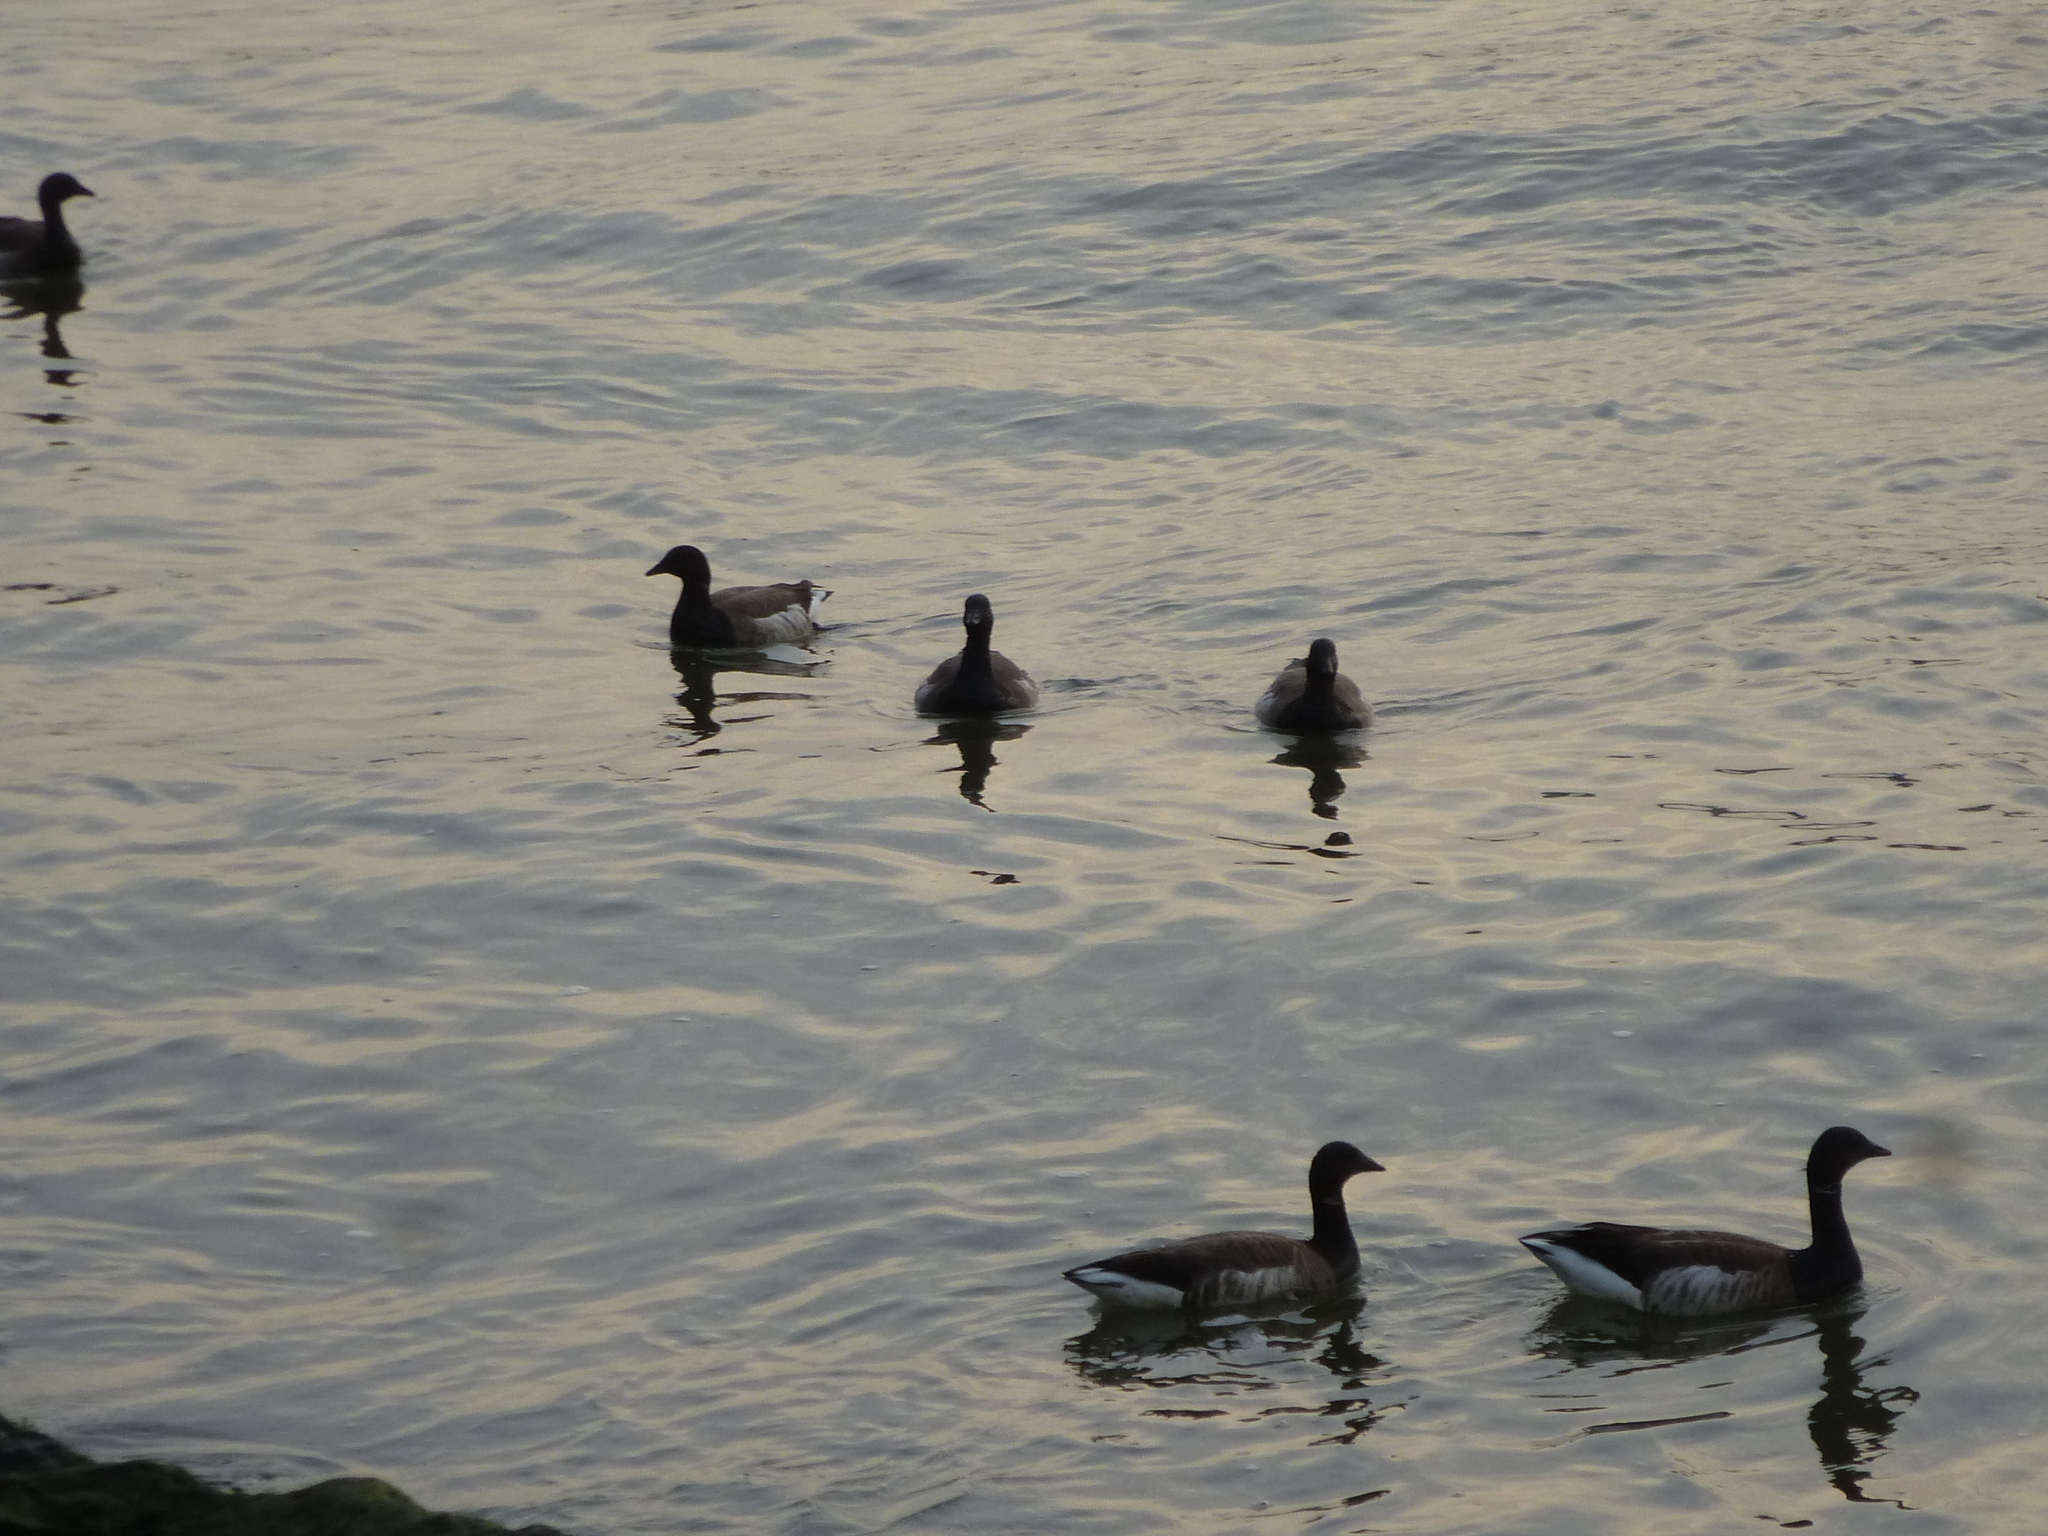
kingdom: Animalia
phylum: Chordata
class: Aves
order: Anseriformes
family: Anatidae
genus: Branta
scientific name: Branta bernicla
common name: Brant goose
